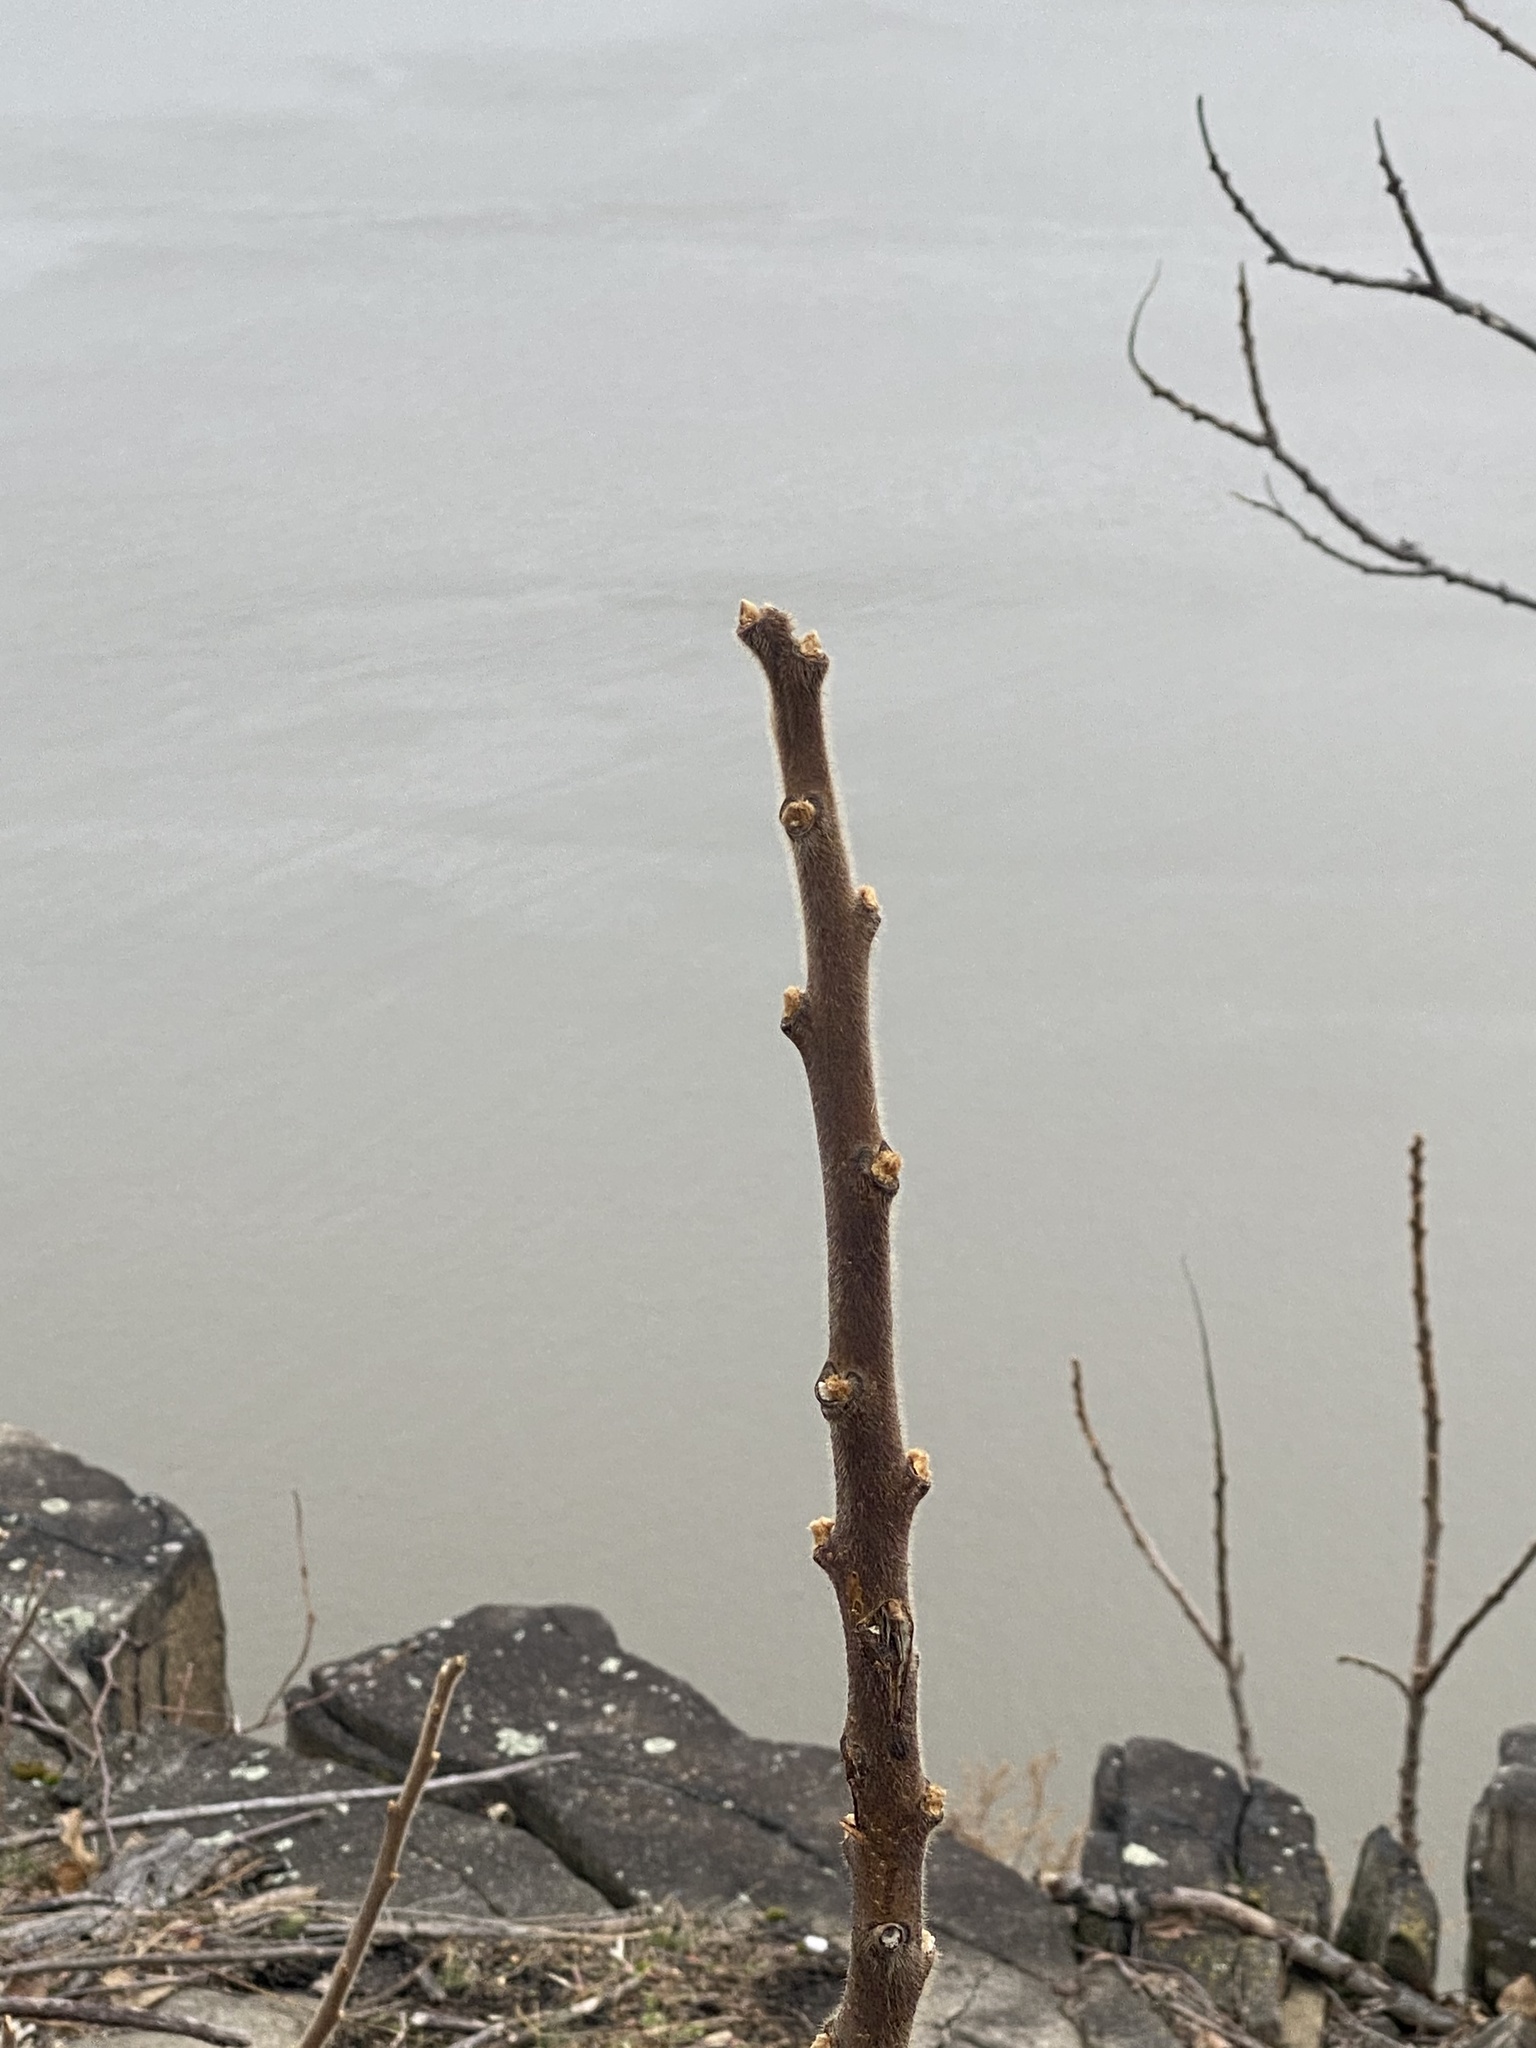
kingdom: Plantae
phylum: Tracheophyta
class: Magnoliopsida
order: Sapindales
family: Anacardiaceae
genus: Rhus
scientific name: Rhus typhina
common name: Staghorn sumac
